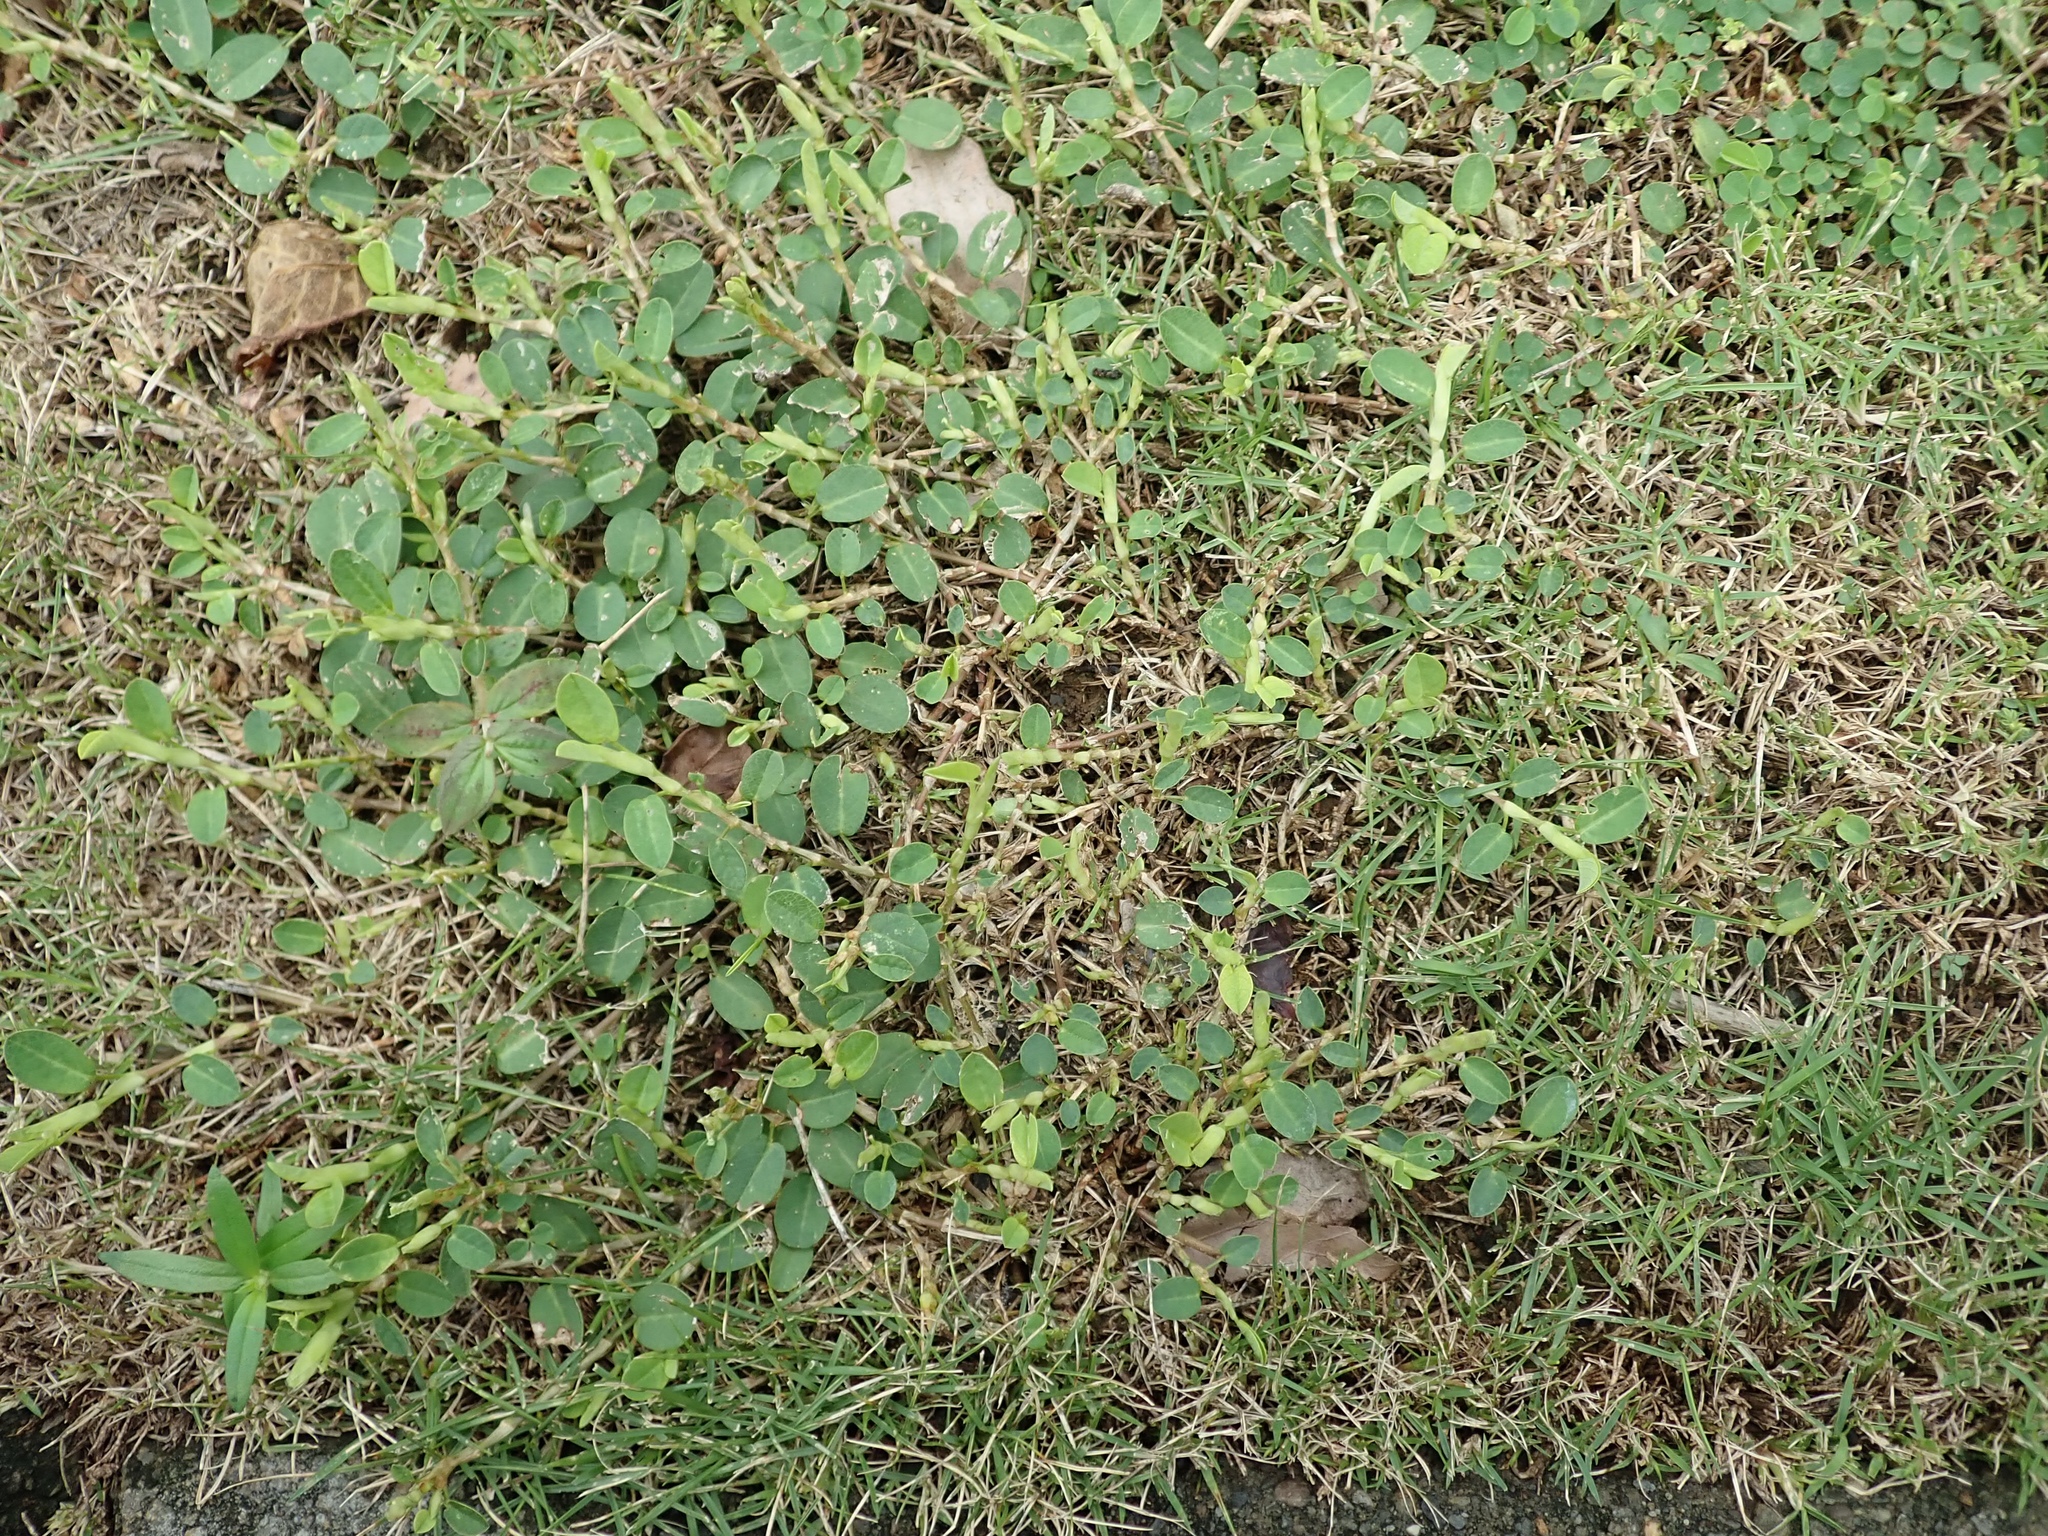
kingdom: Plantae
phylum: Tracheophyta
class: Magnoliopsida
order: Fabales
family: Fabaceae
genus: Alysicarpus
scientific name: Alysicarpus vaginalis
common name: White moneywort
